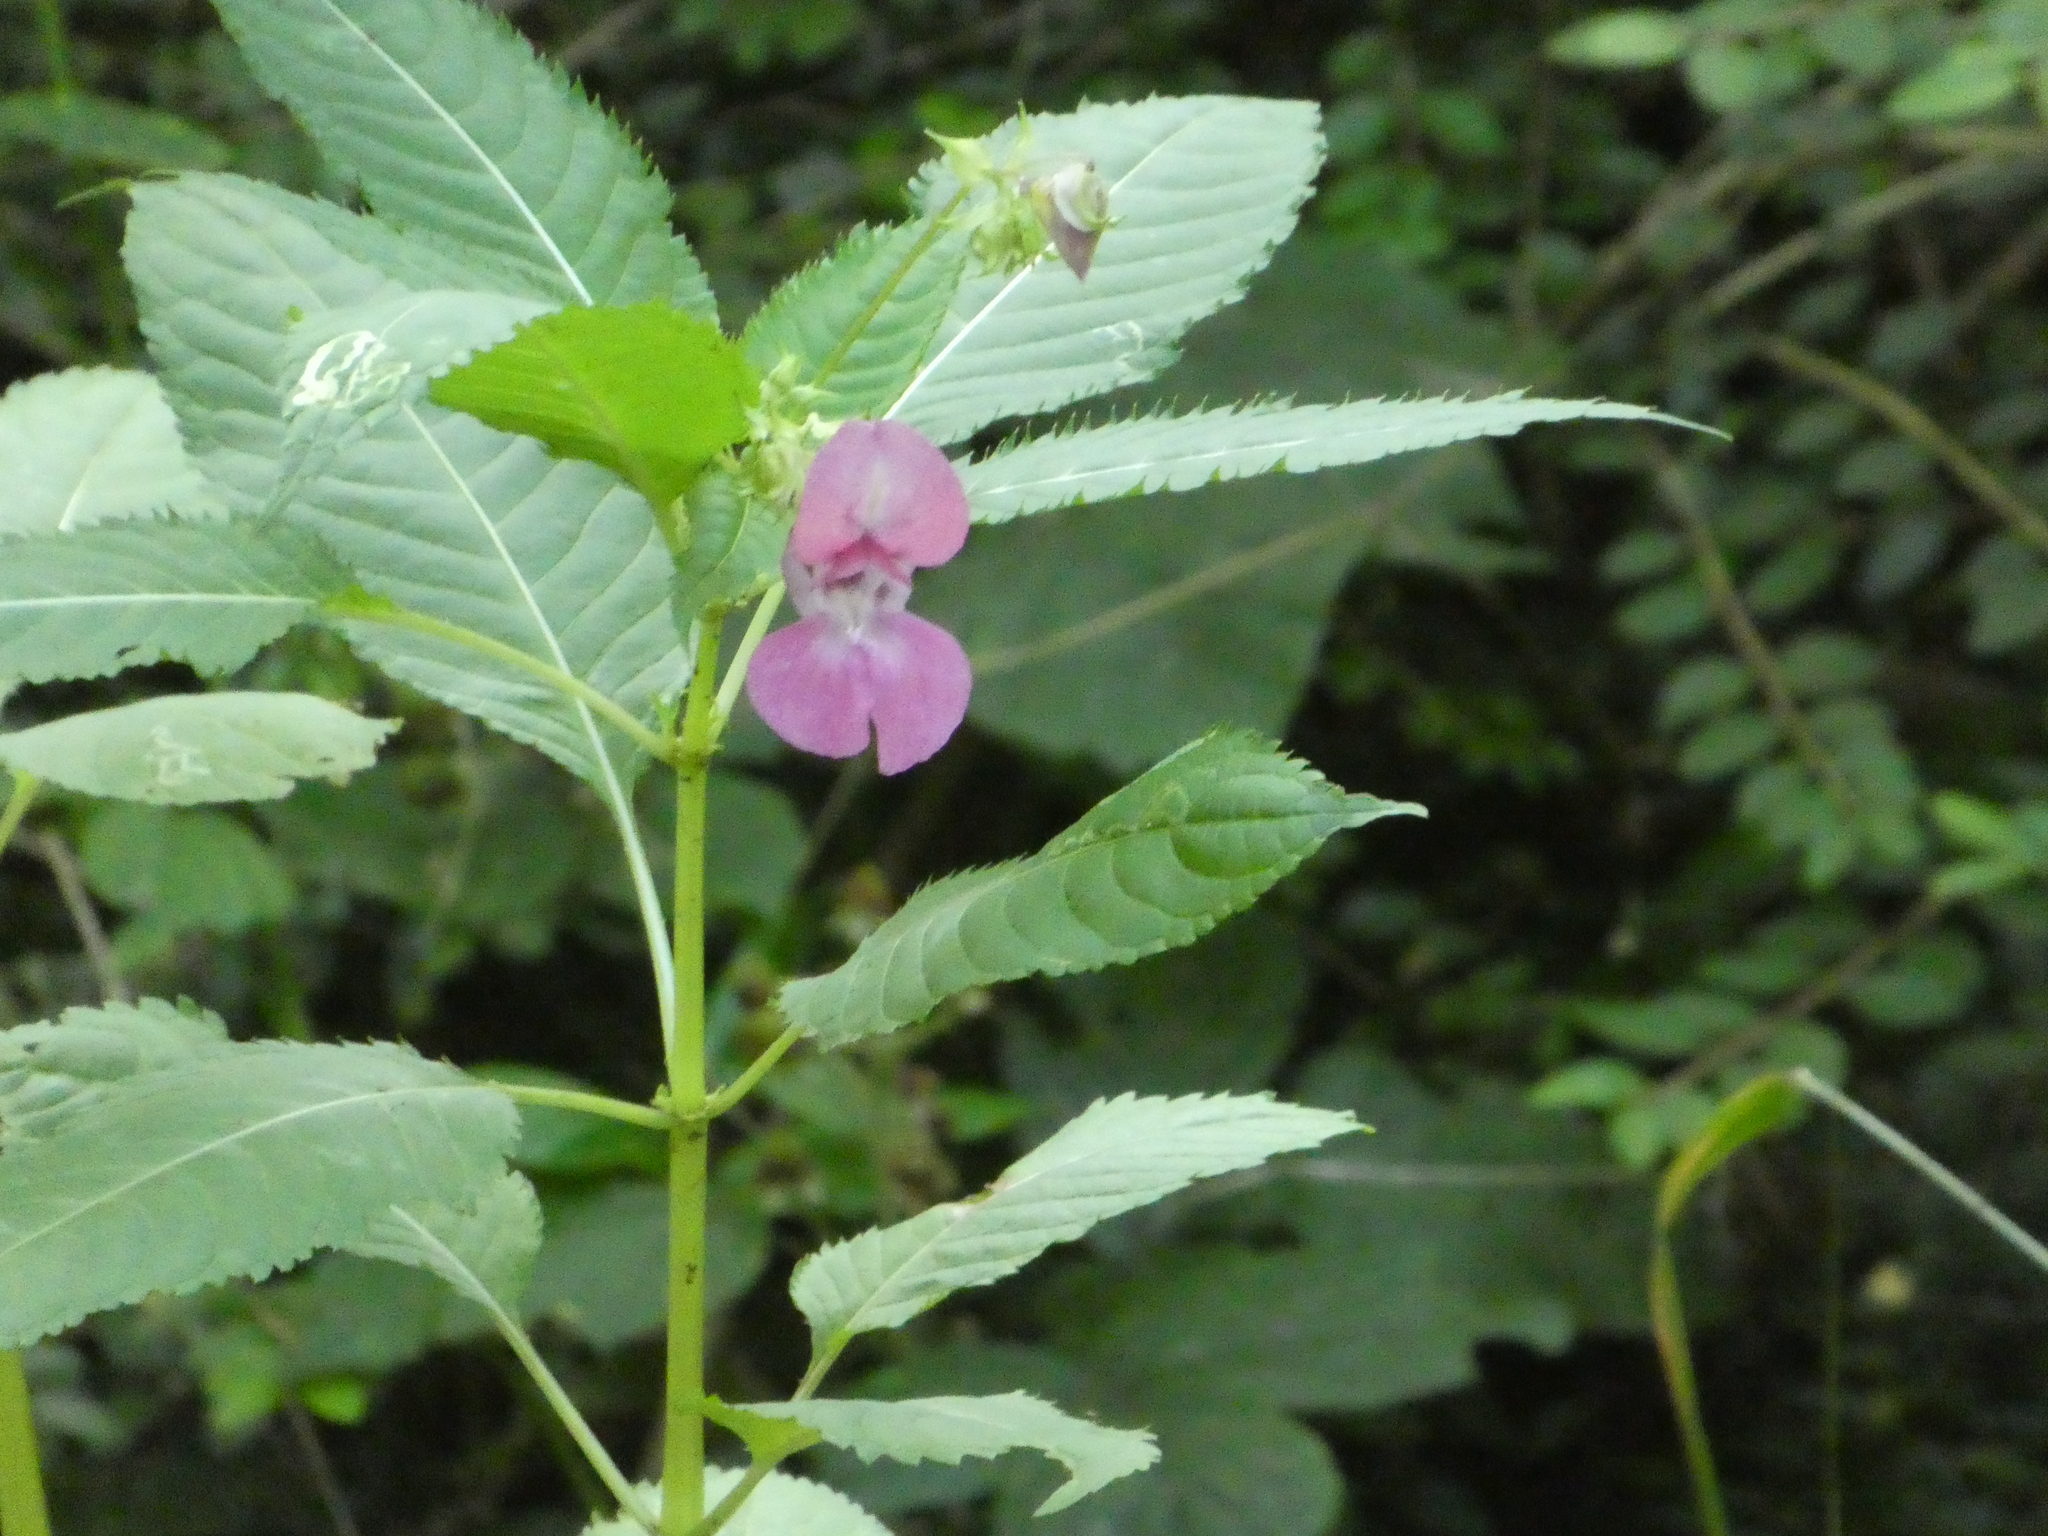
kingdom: Plantae
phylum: Tracheophyta
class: Magnoliopsida
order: Ericales
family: Balsaminaceae
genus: Impatiens
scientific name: Impatiens glandulifera
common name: Himalayan balsam
